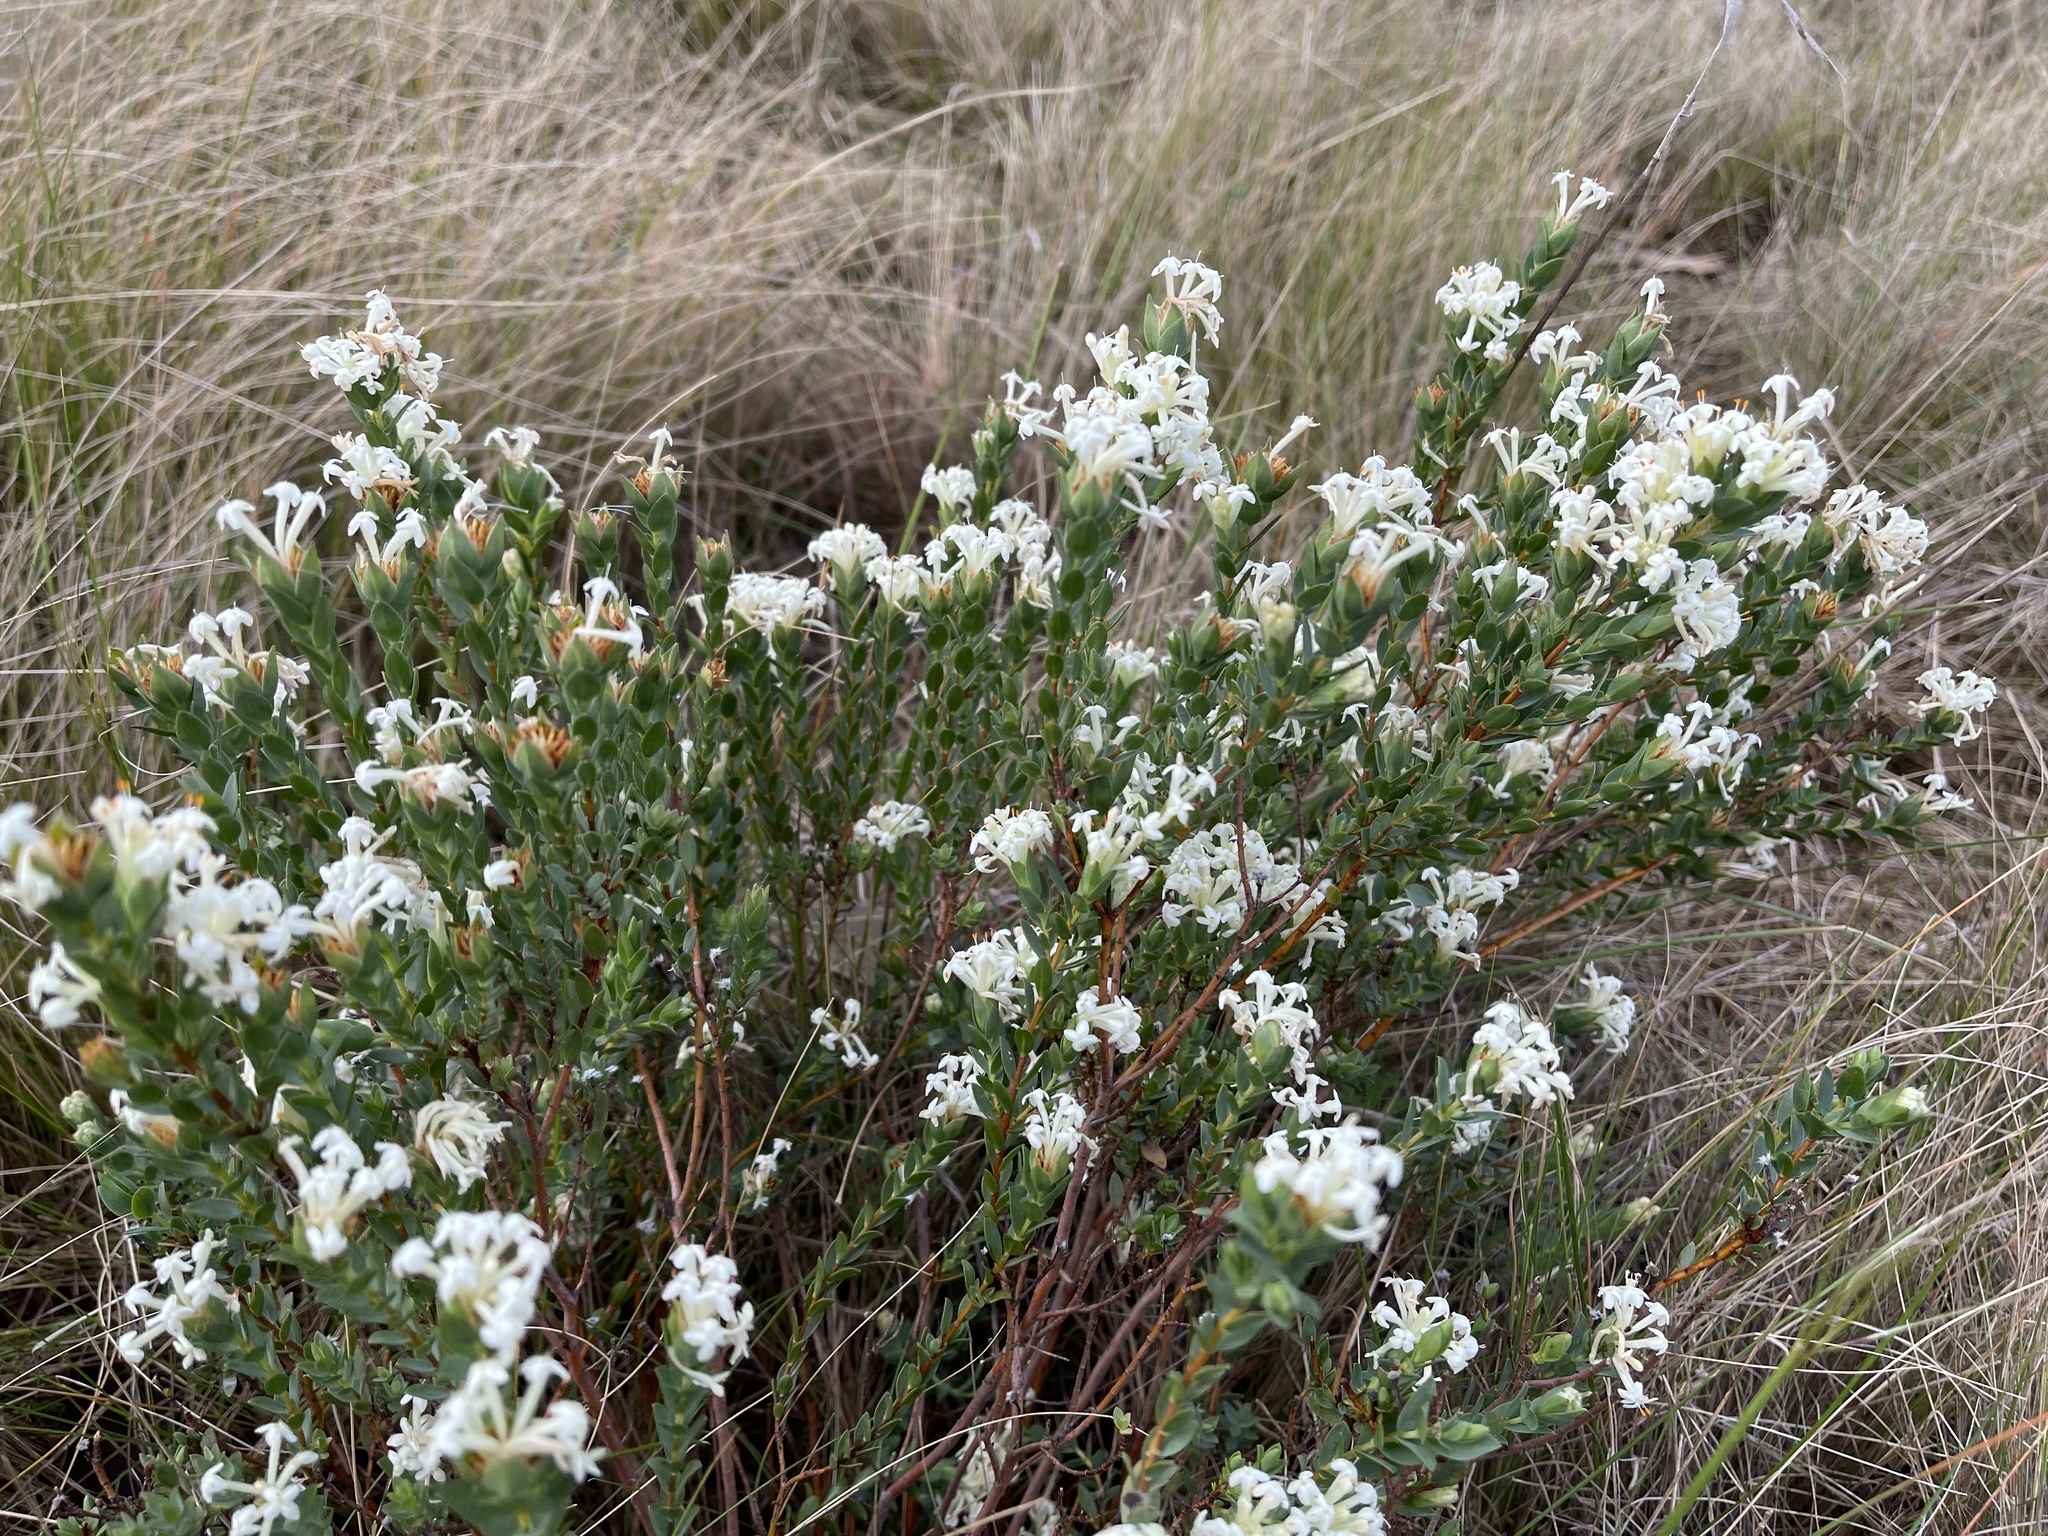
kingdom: Plantae
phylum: Tracheophyta
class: Magnoliopsida
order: Malvales
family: Thymelaeaceae
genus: Pimelea
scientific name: Pimelea glauca
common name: Smooth riceflower
